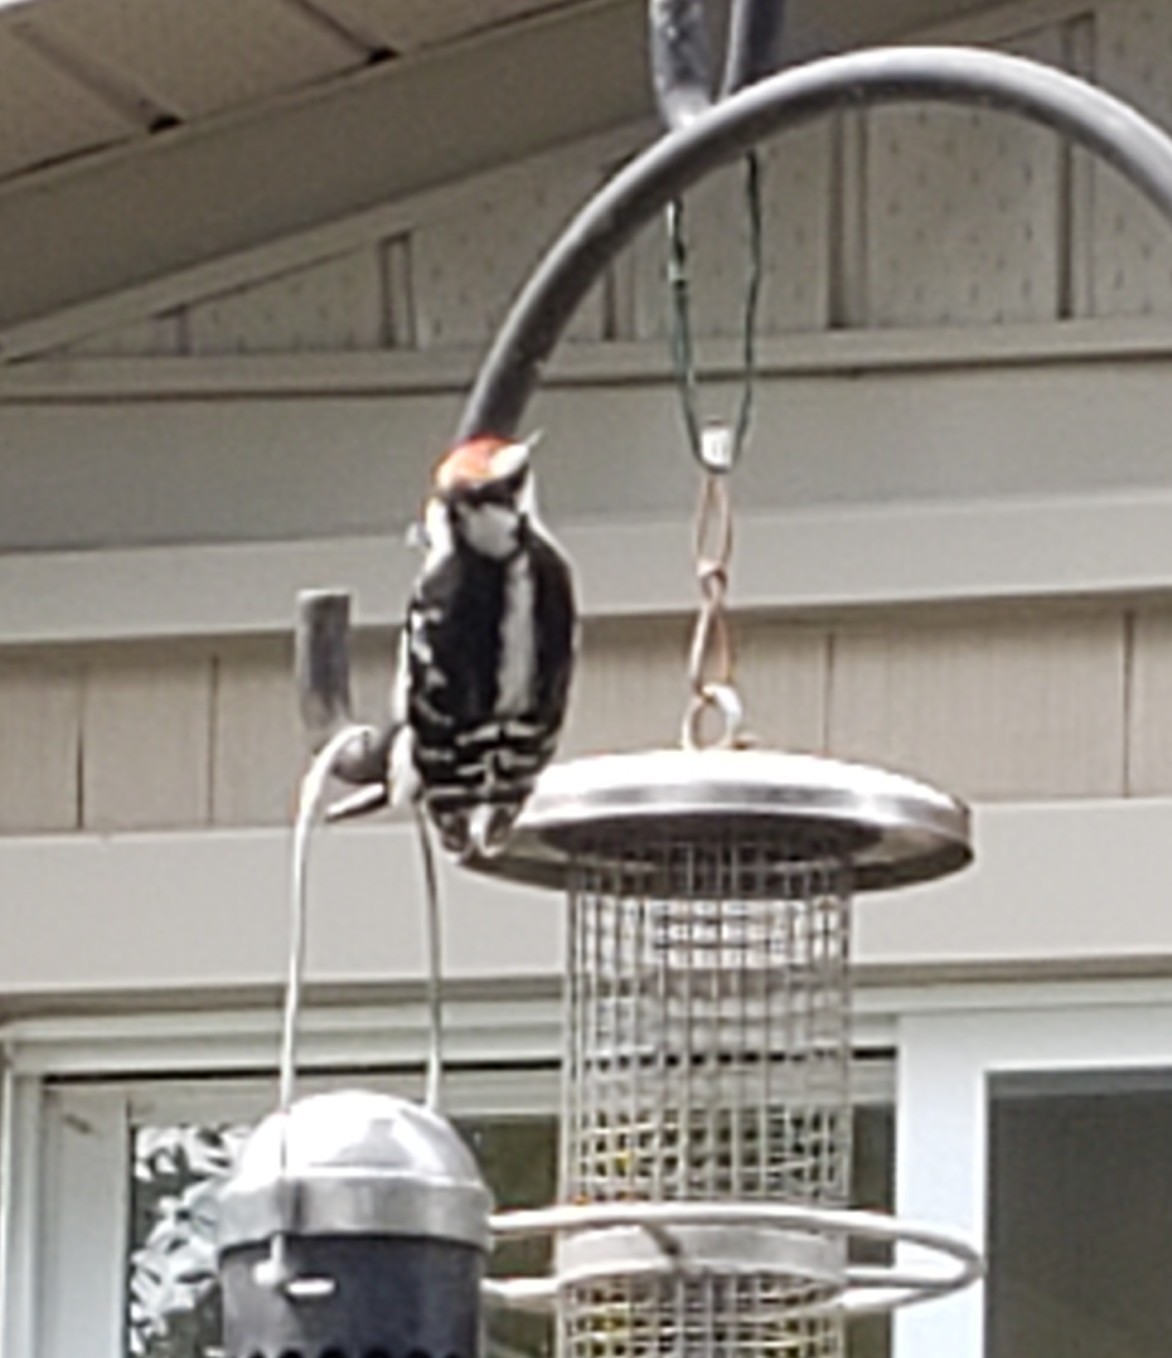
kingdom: Animalia
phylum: Chordata
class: Aves
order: Piciformes
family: Picidae
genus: Dryobates
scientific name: Dryobates pubescens
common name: Downy woodpecker
